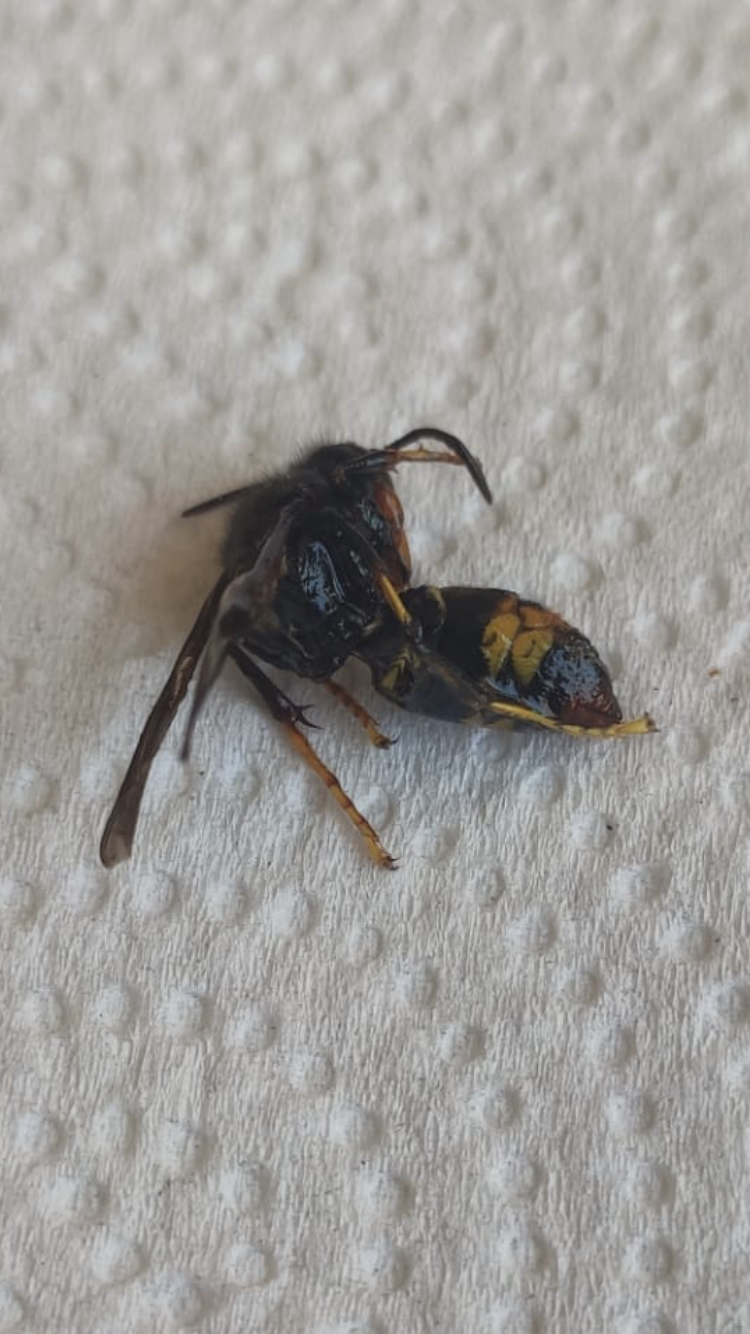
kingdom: Animalia
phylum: Arthropoda
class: Insecta
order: Hymenoptera
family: Vespidae
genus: Vespa
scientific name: Vespa velutina
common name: Asian hornet
